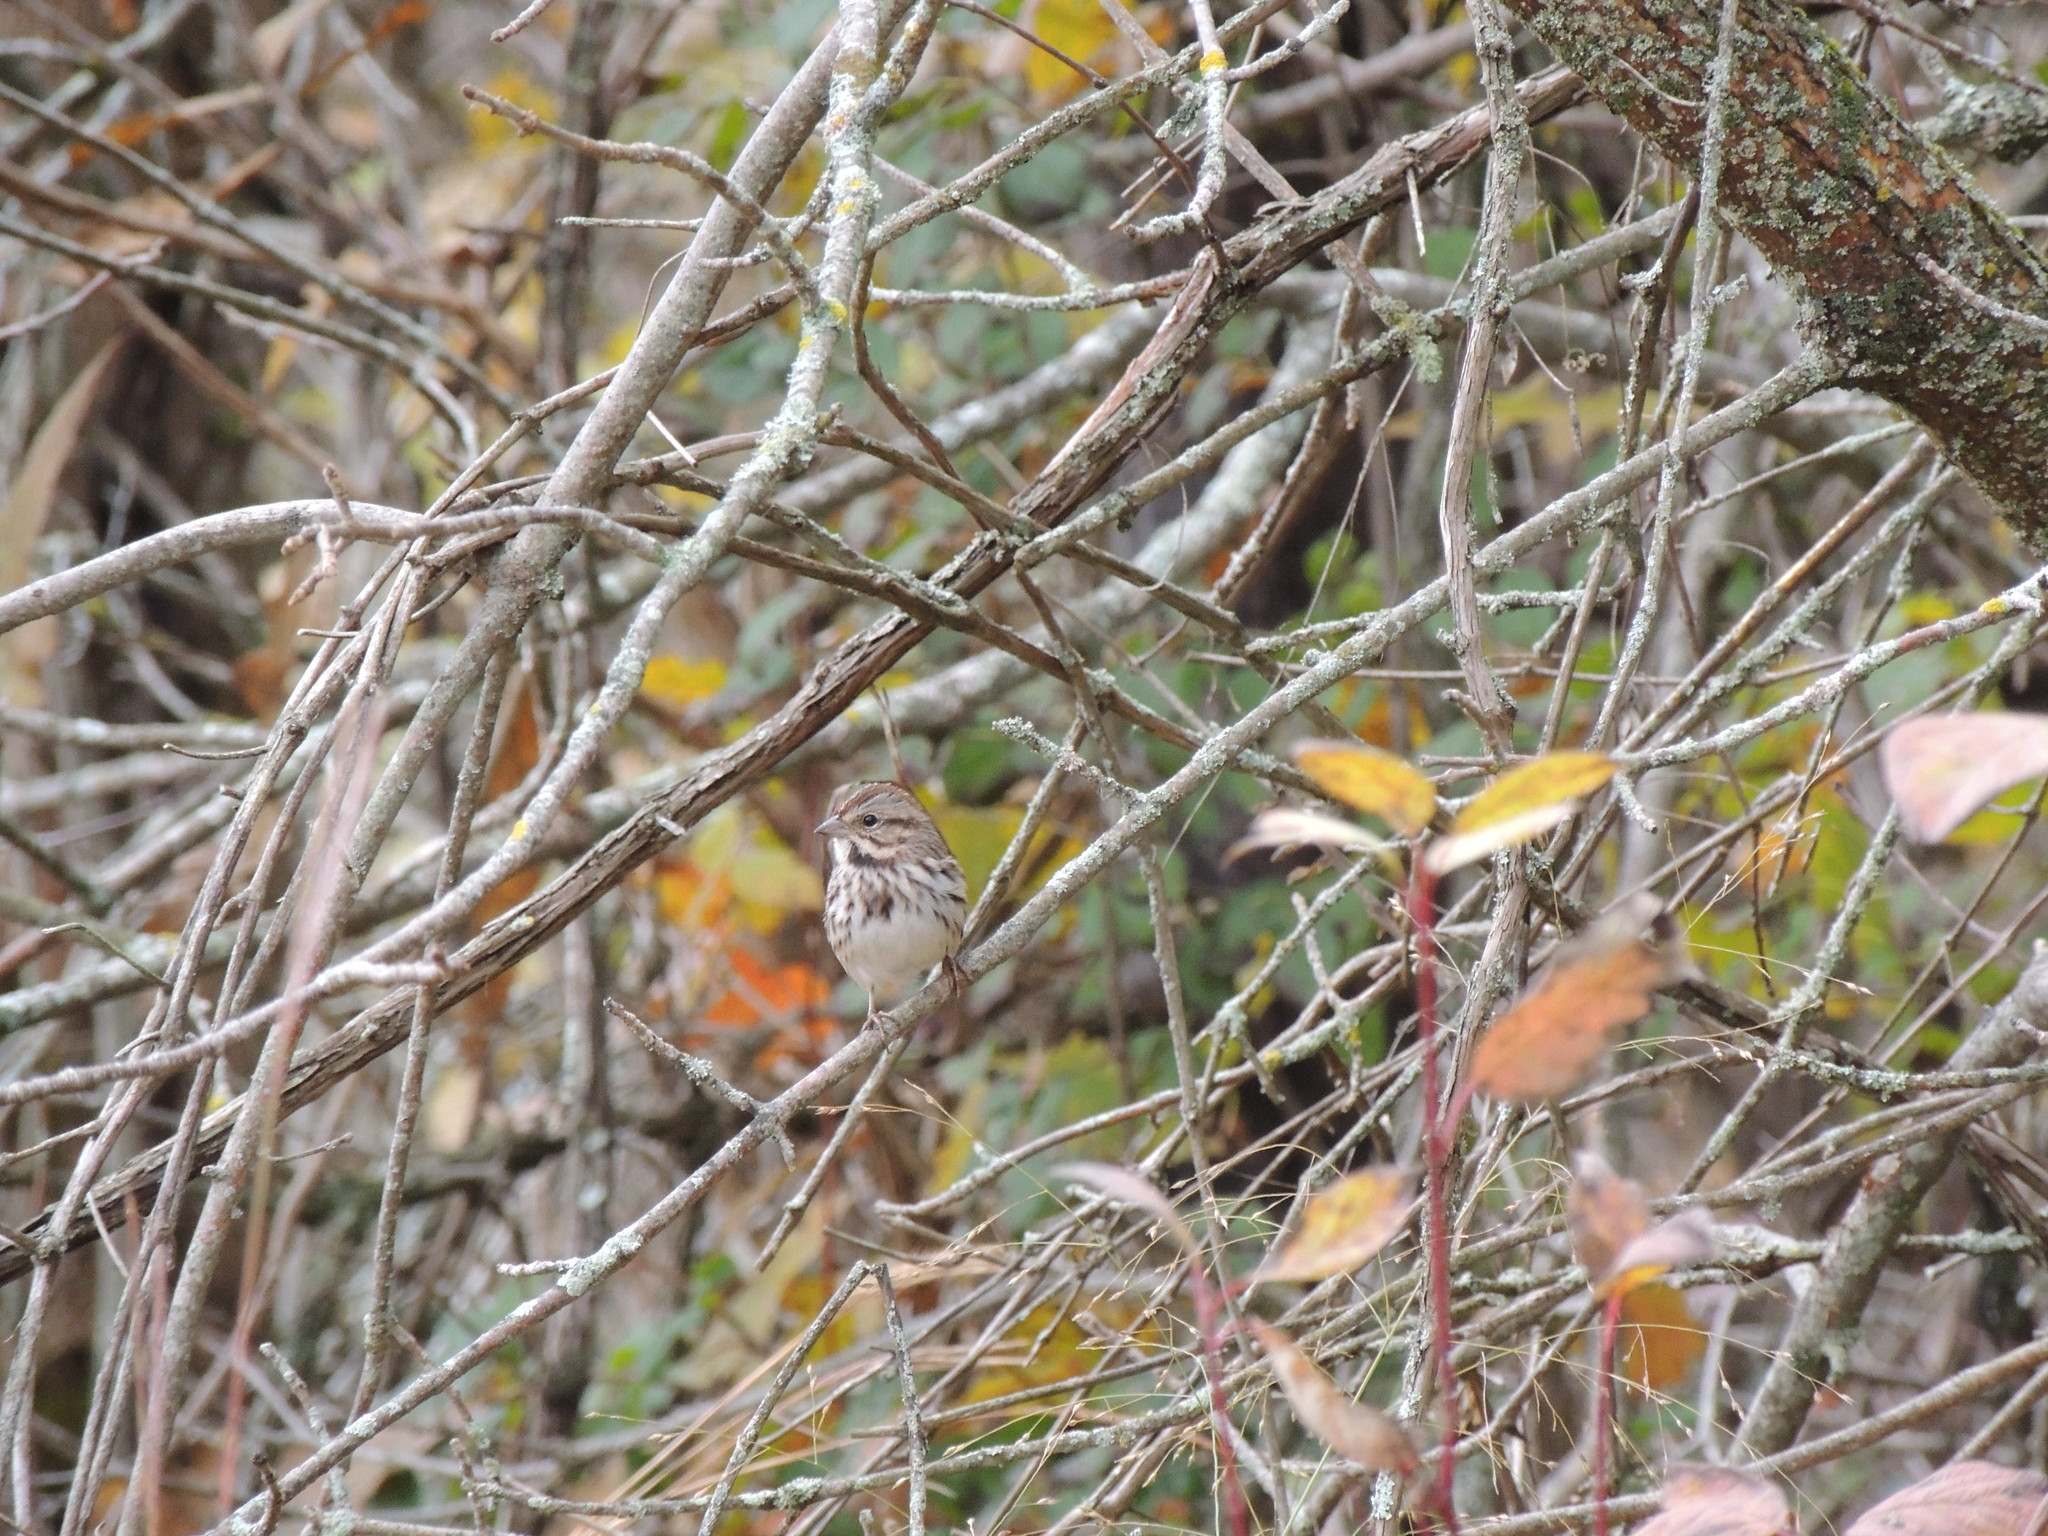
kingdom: Animalia
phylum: Chordata
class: Aves
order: Passeriformes
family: Passerellidae
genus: Melospiza
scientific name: Melospiza melodia
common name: Song sparrow
